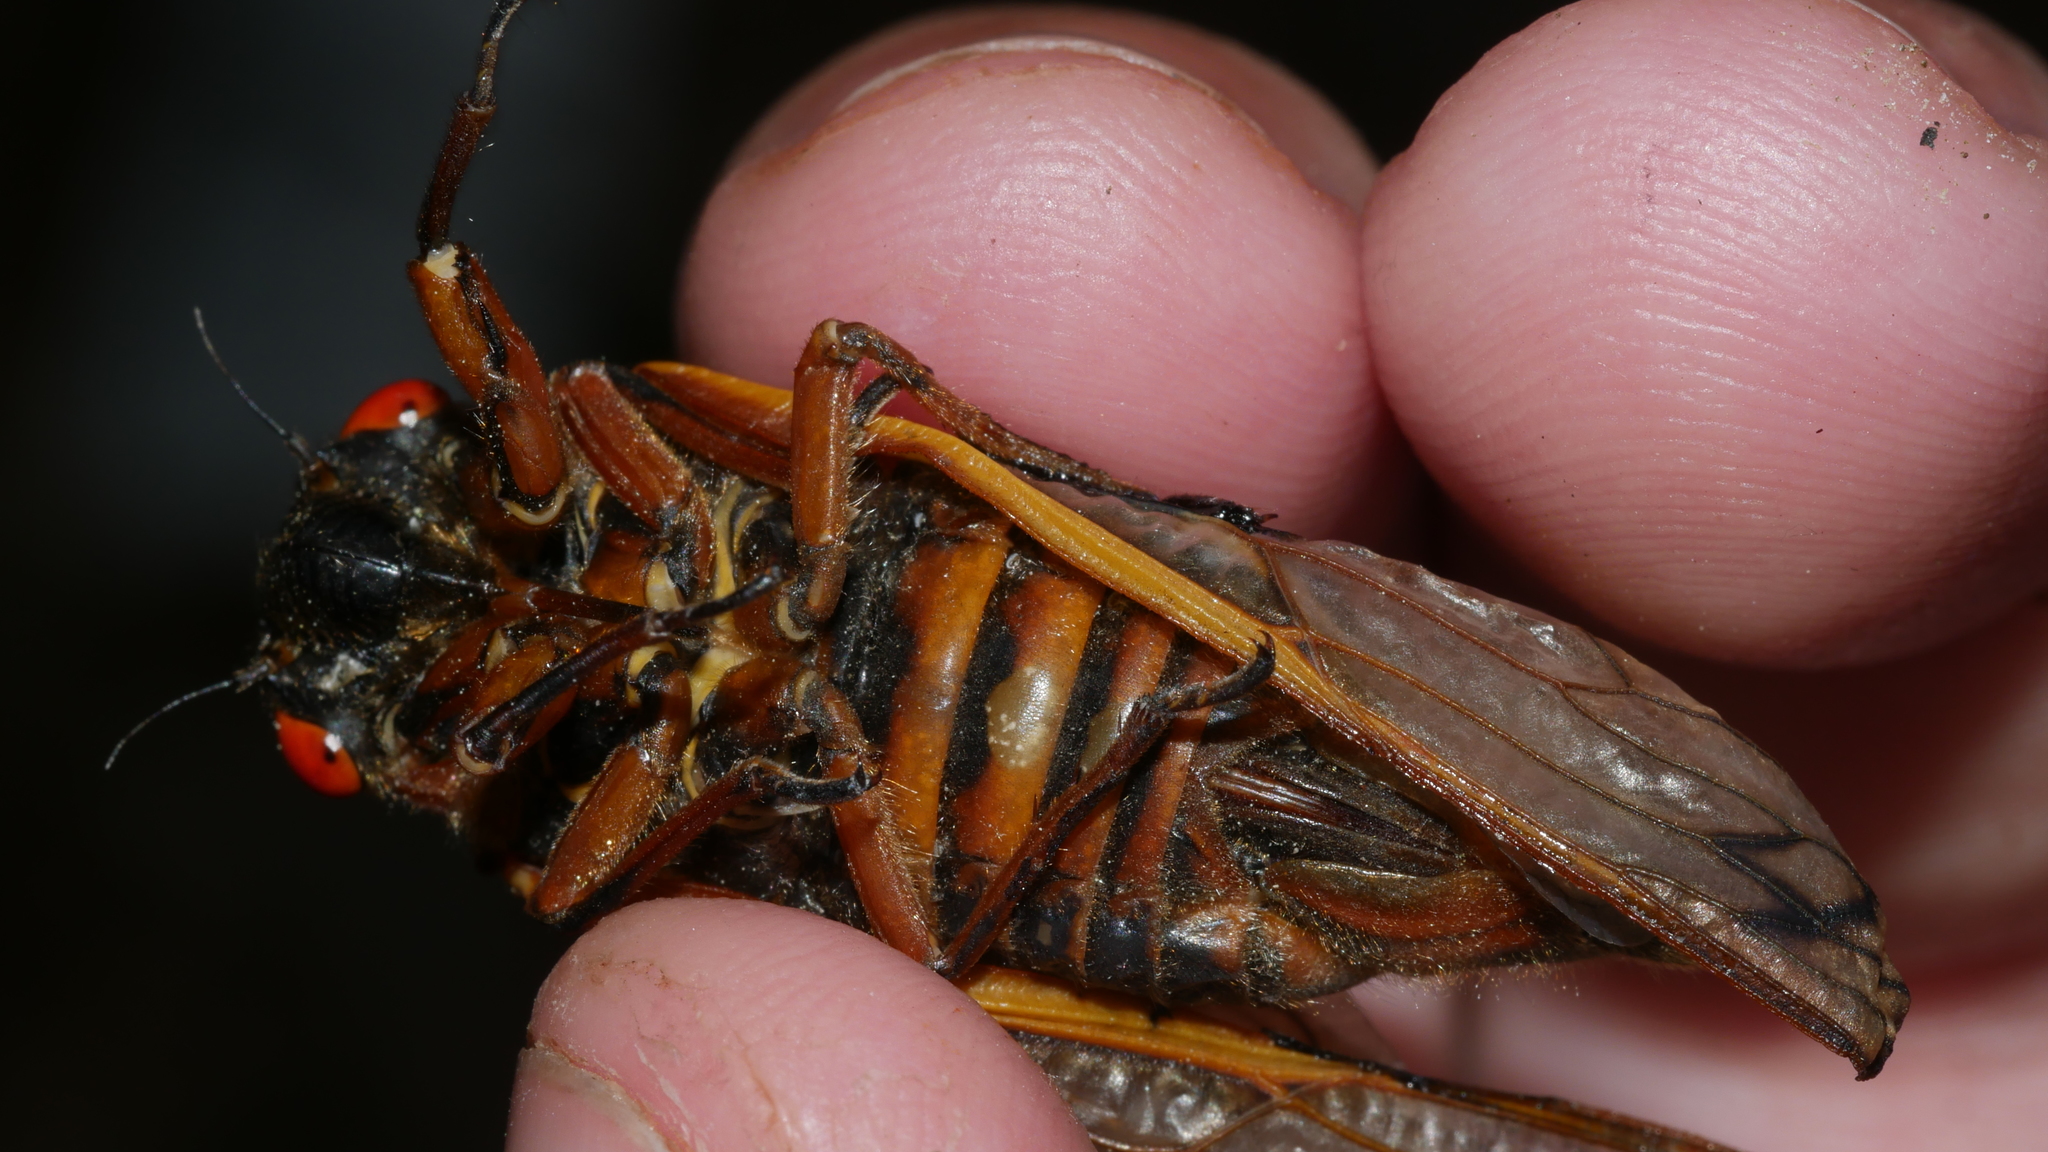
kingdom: Animalia
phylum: Arthropoda
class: Insecta
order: Hemiptera
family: Cicadidae
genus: Magicicada
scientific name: Magicicada septendecim
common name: Periodical cicada
